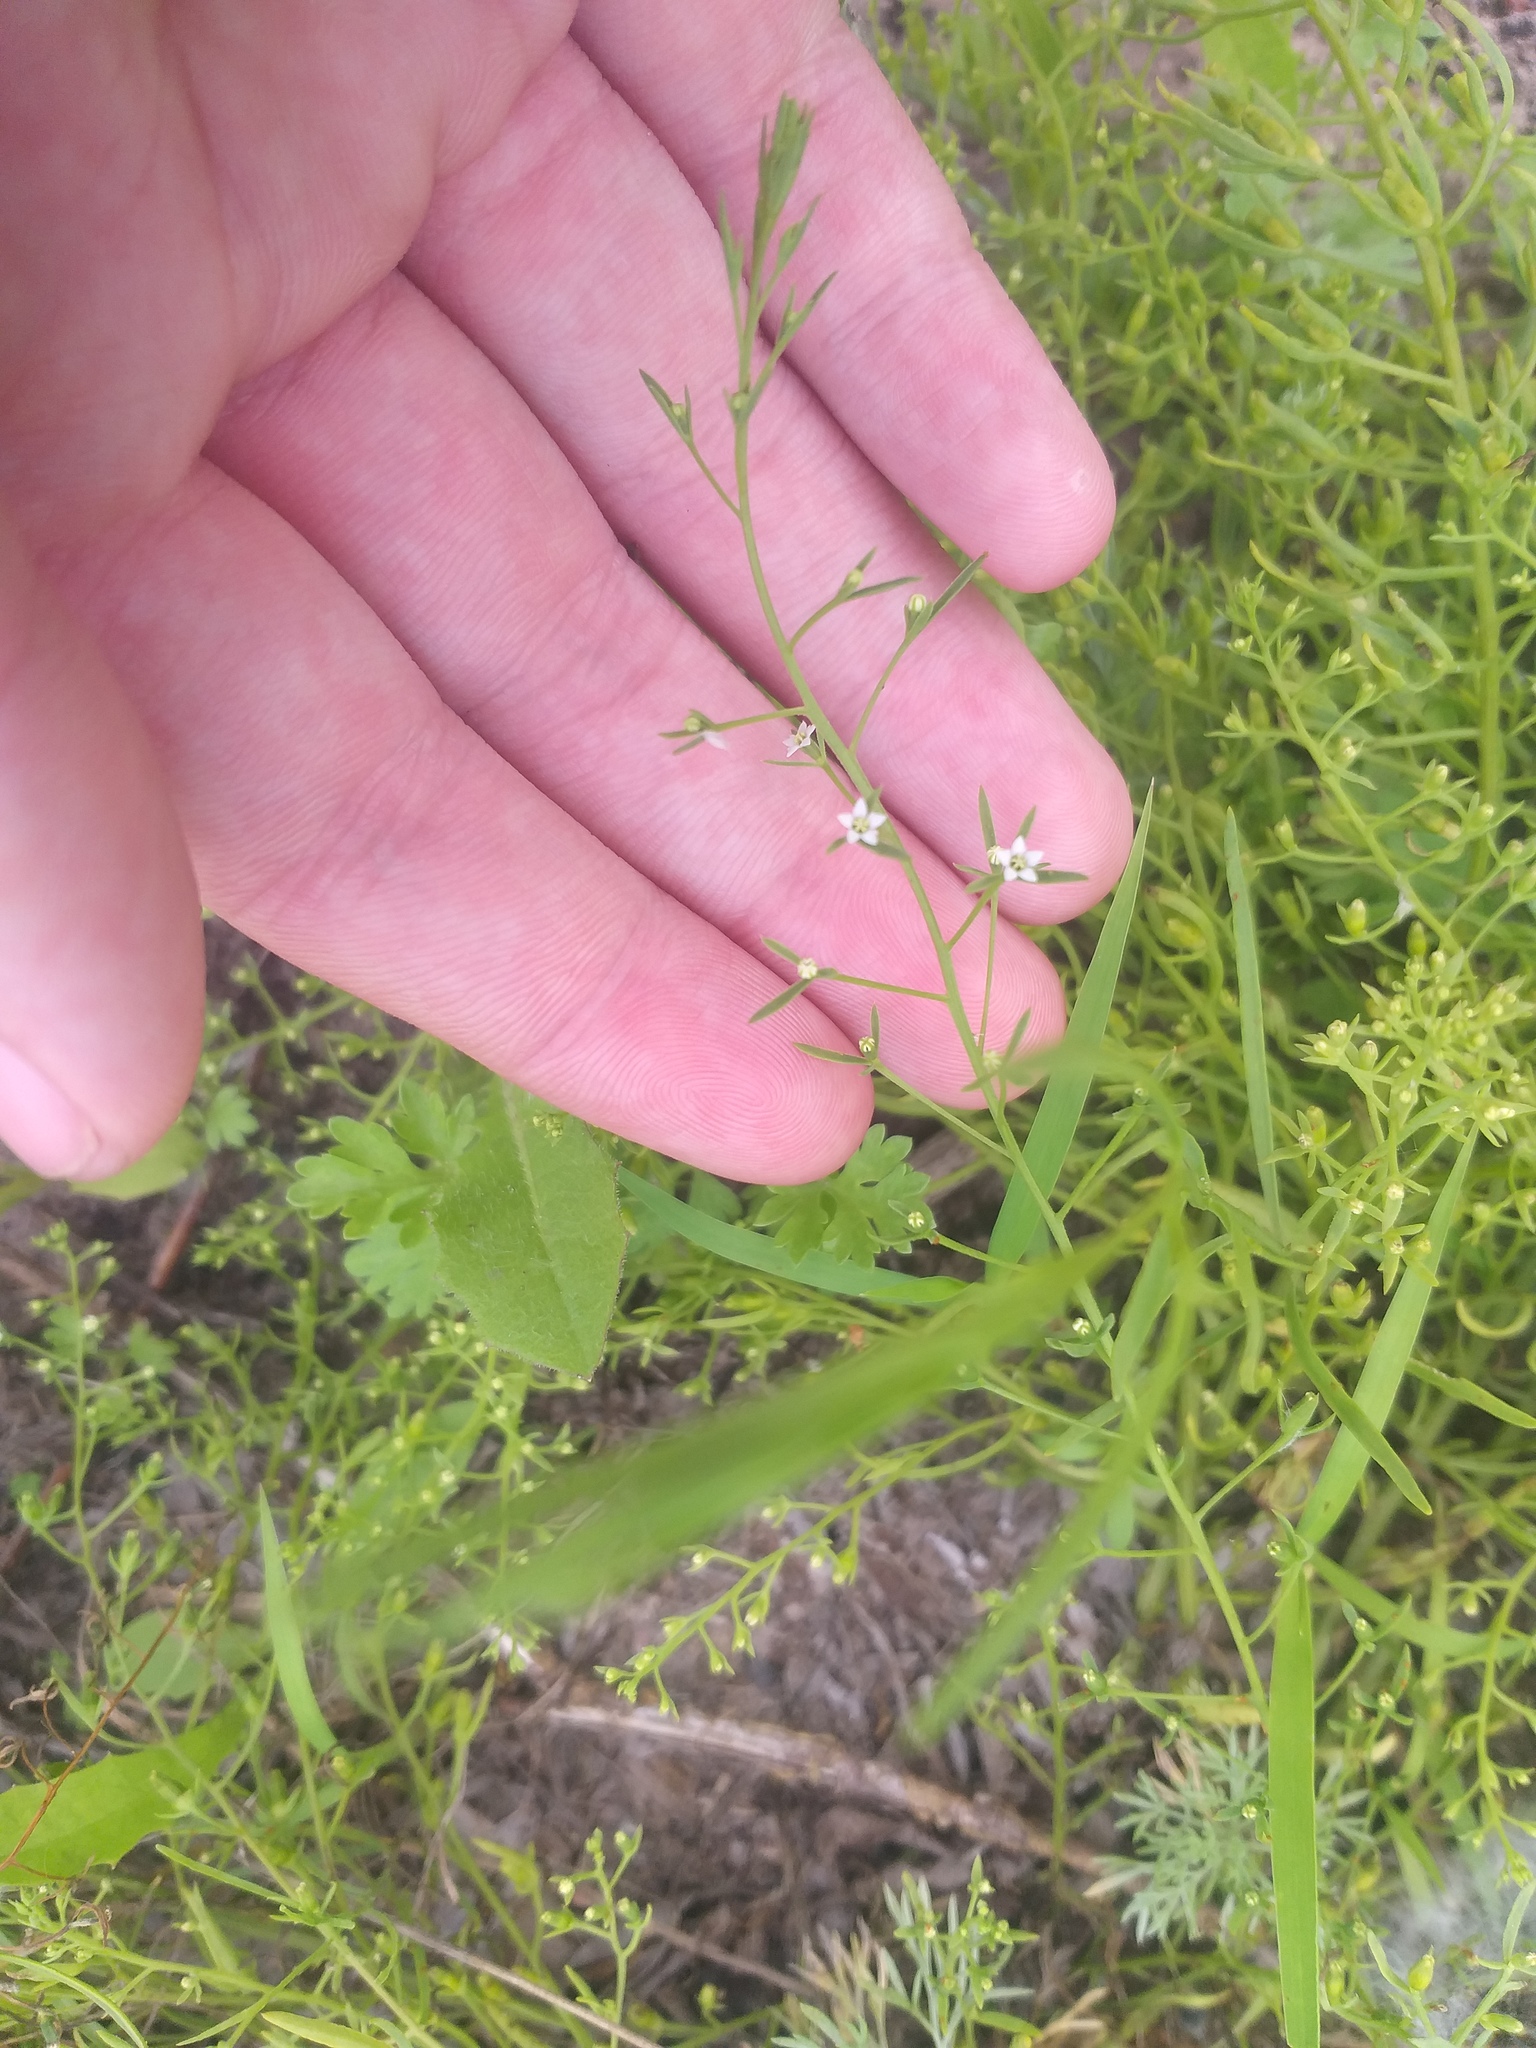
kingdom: Plantae
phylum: Tracheophyta
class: Magnoliopsida
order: Santalales
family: Thesiaceae
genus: Thesium
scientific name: Thesium ramosum
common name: Field thesium
